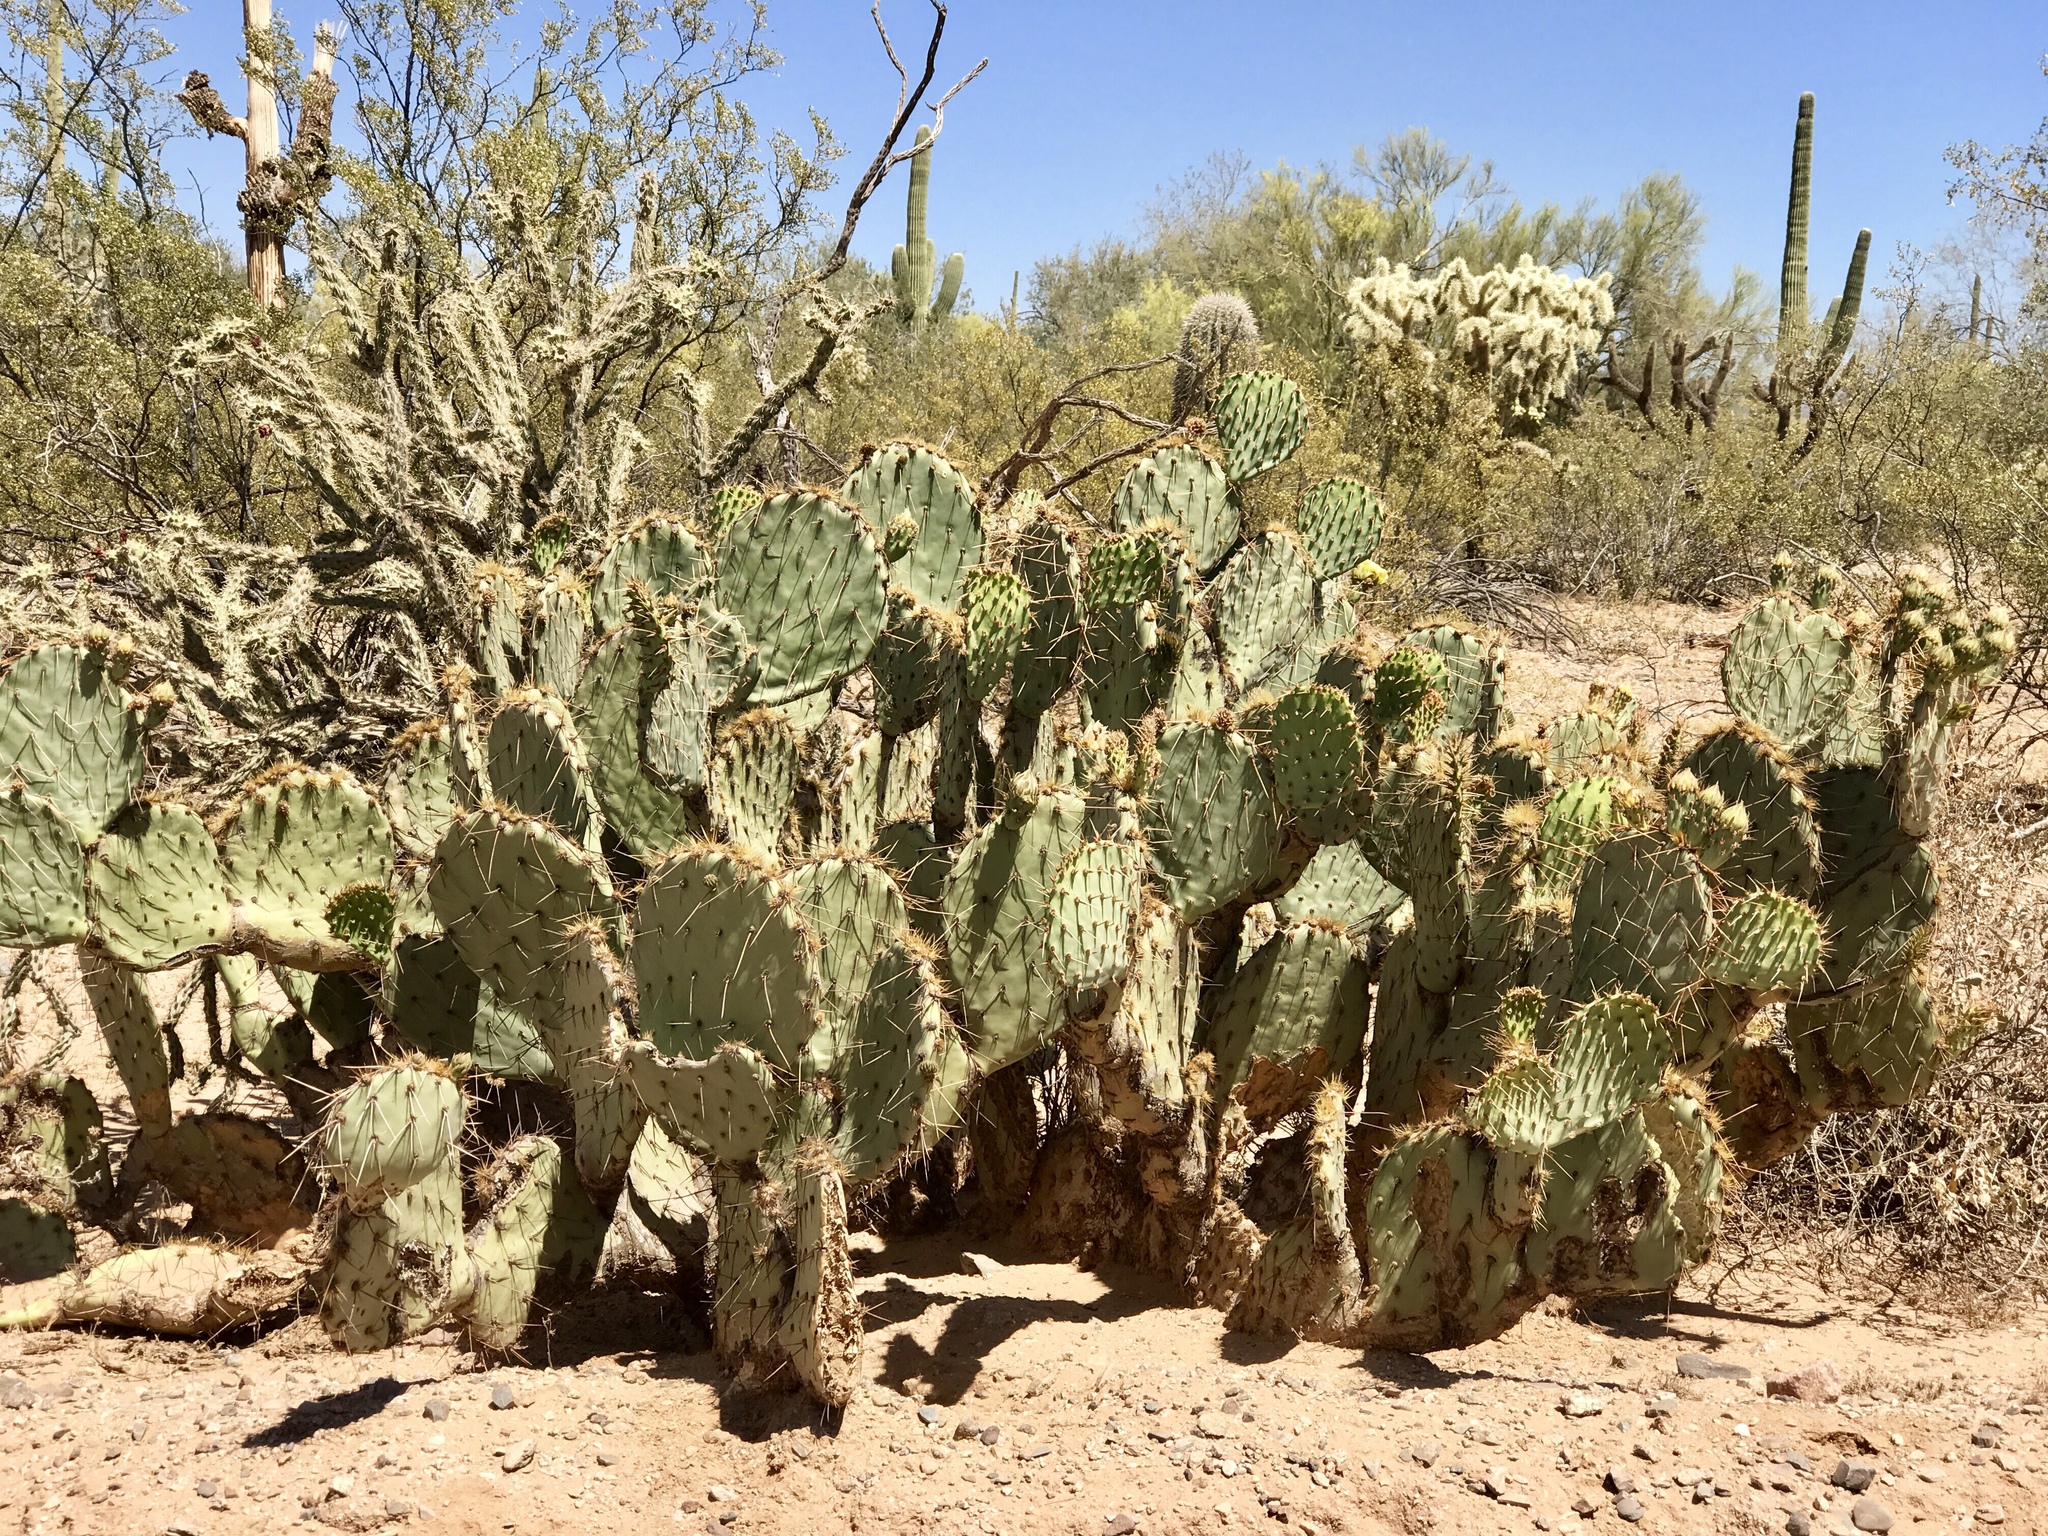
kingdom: Plantae
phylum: Tracheophyta
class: Magnoliopsida
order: Caryophyllales
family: Cactaceae
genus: Opuntia
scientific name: Opuntia engelmannii
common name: Cactus-apple
